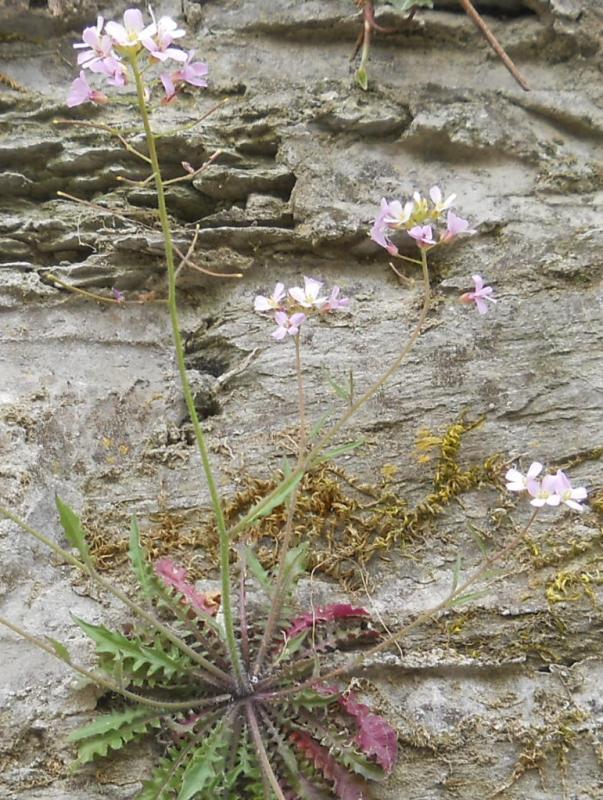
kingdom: Plantae
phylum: Tracheophyta
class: Magnoliopsida
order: Brassicales
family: Brassicaceae
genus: Arabidopsis
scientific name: Arabidopsis arenosa
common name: Sand rock-cress
